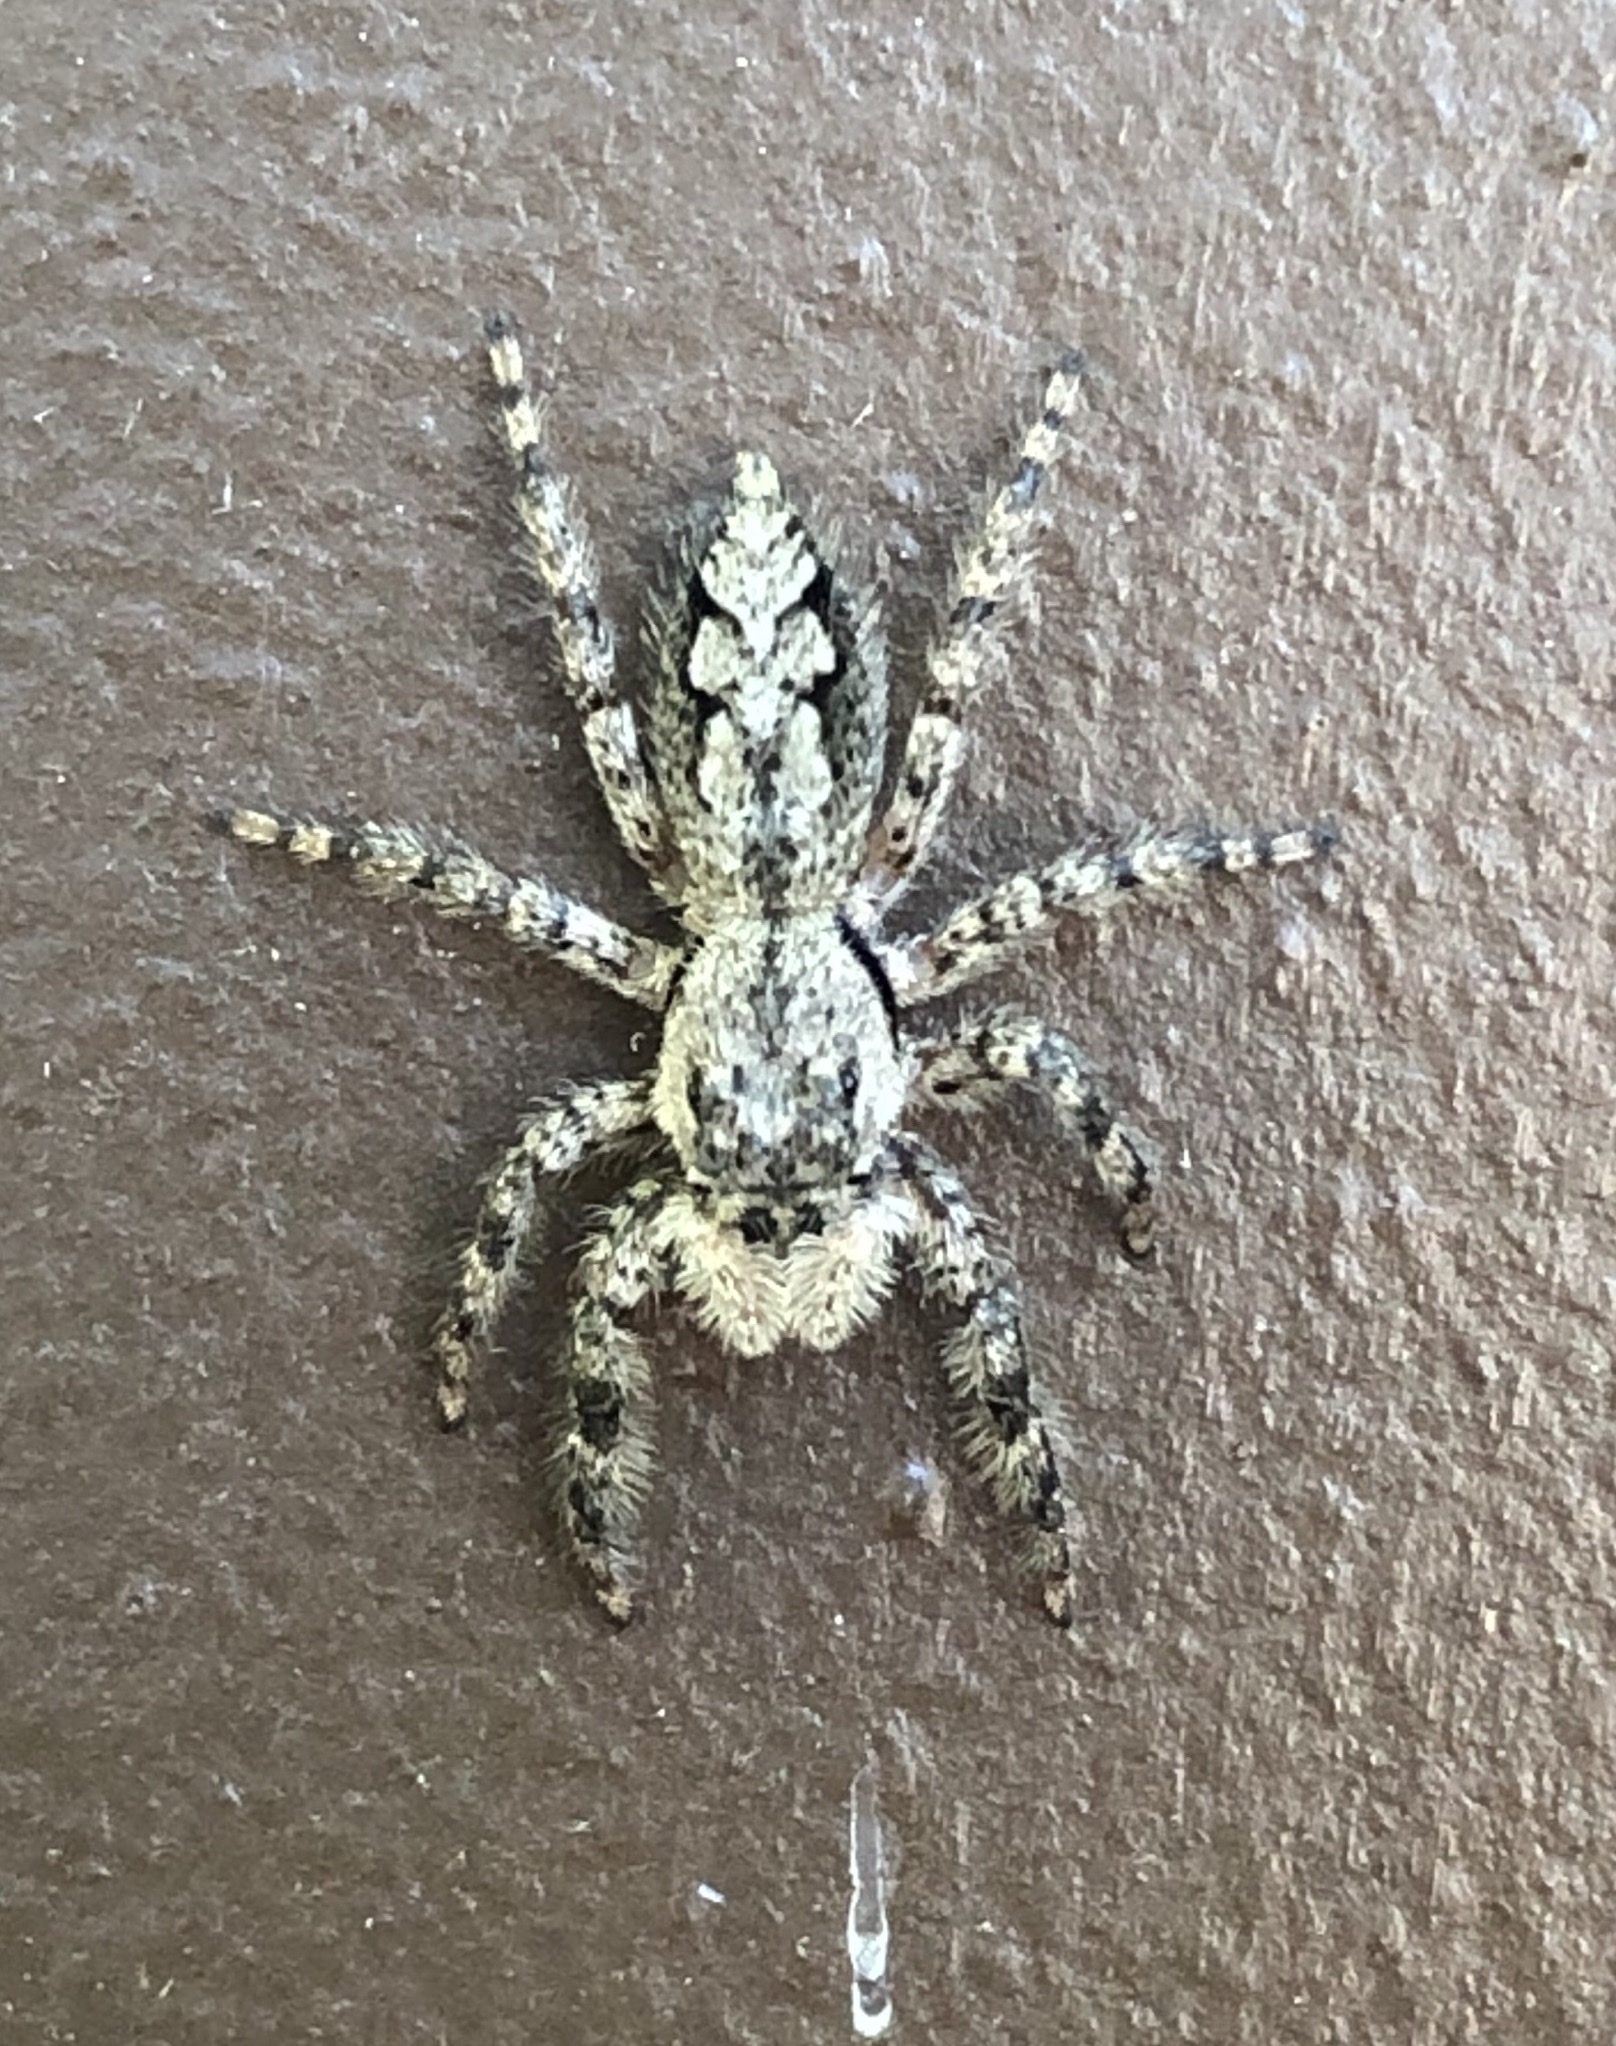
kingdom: Animalia
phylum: Arthropoda
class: Arachnida
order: Araneae
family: Salticidae
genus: Platycryptus
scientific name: Platycryptus undatus
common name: Tan jumping spider
